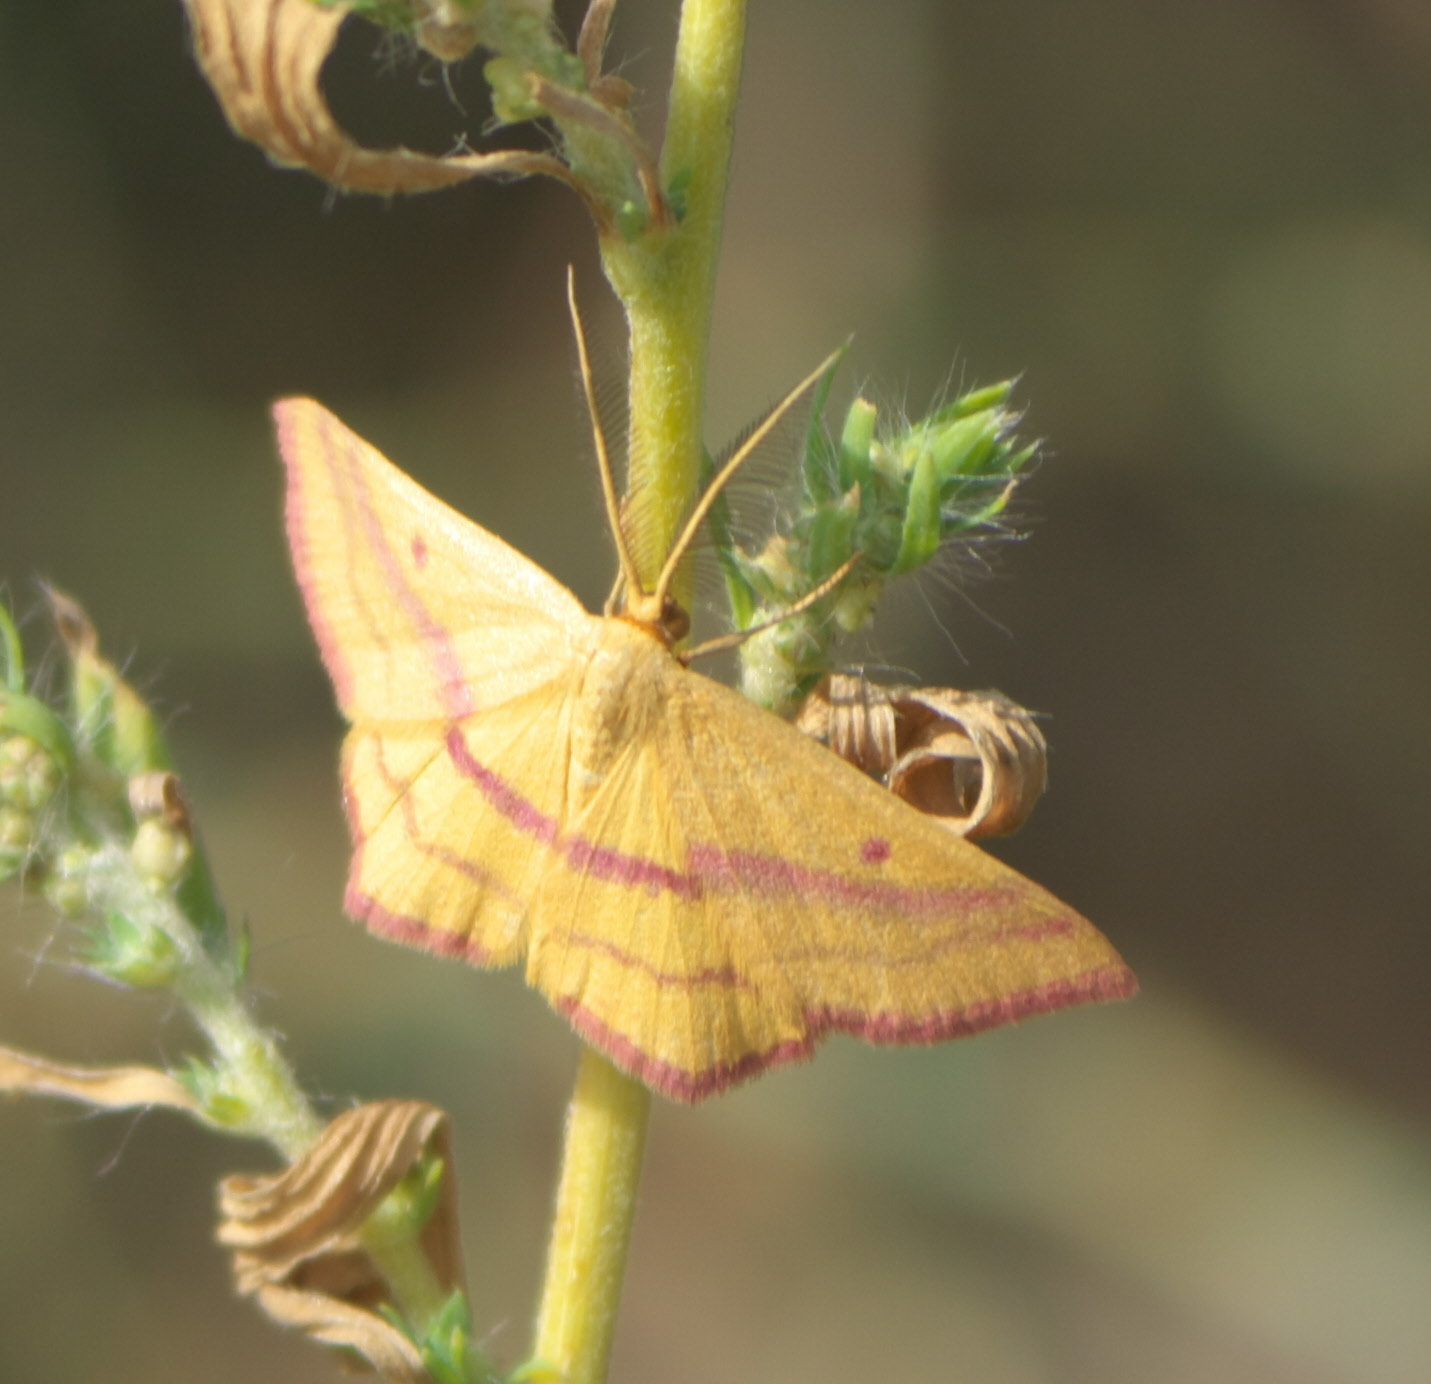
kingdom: Animalia
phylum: Arthropoda
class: Insecta
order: Lepidoptera
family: Geometridae
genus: Haematopis
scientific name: Haematopis grataria
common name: Chickweed geometer
